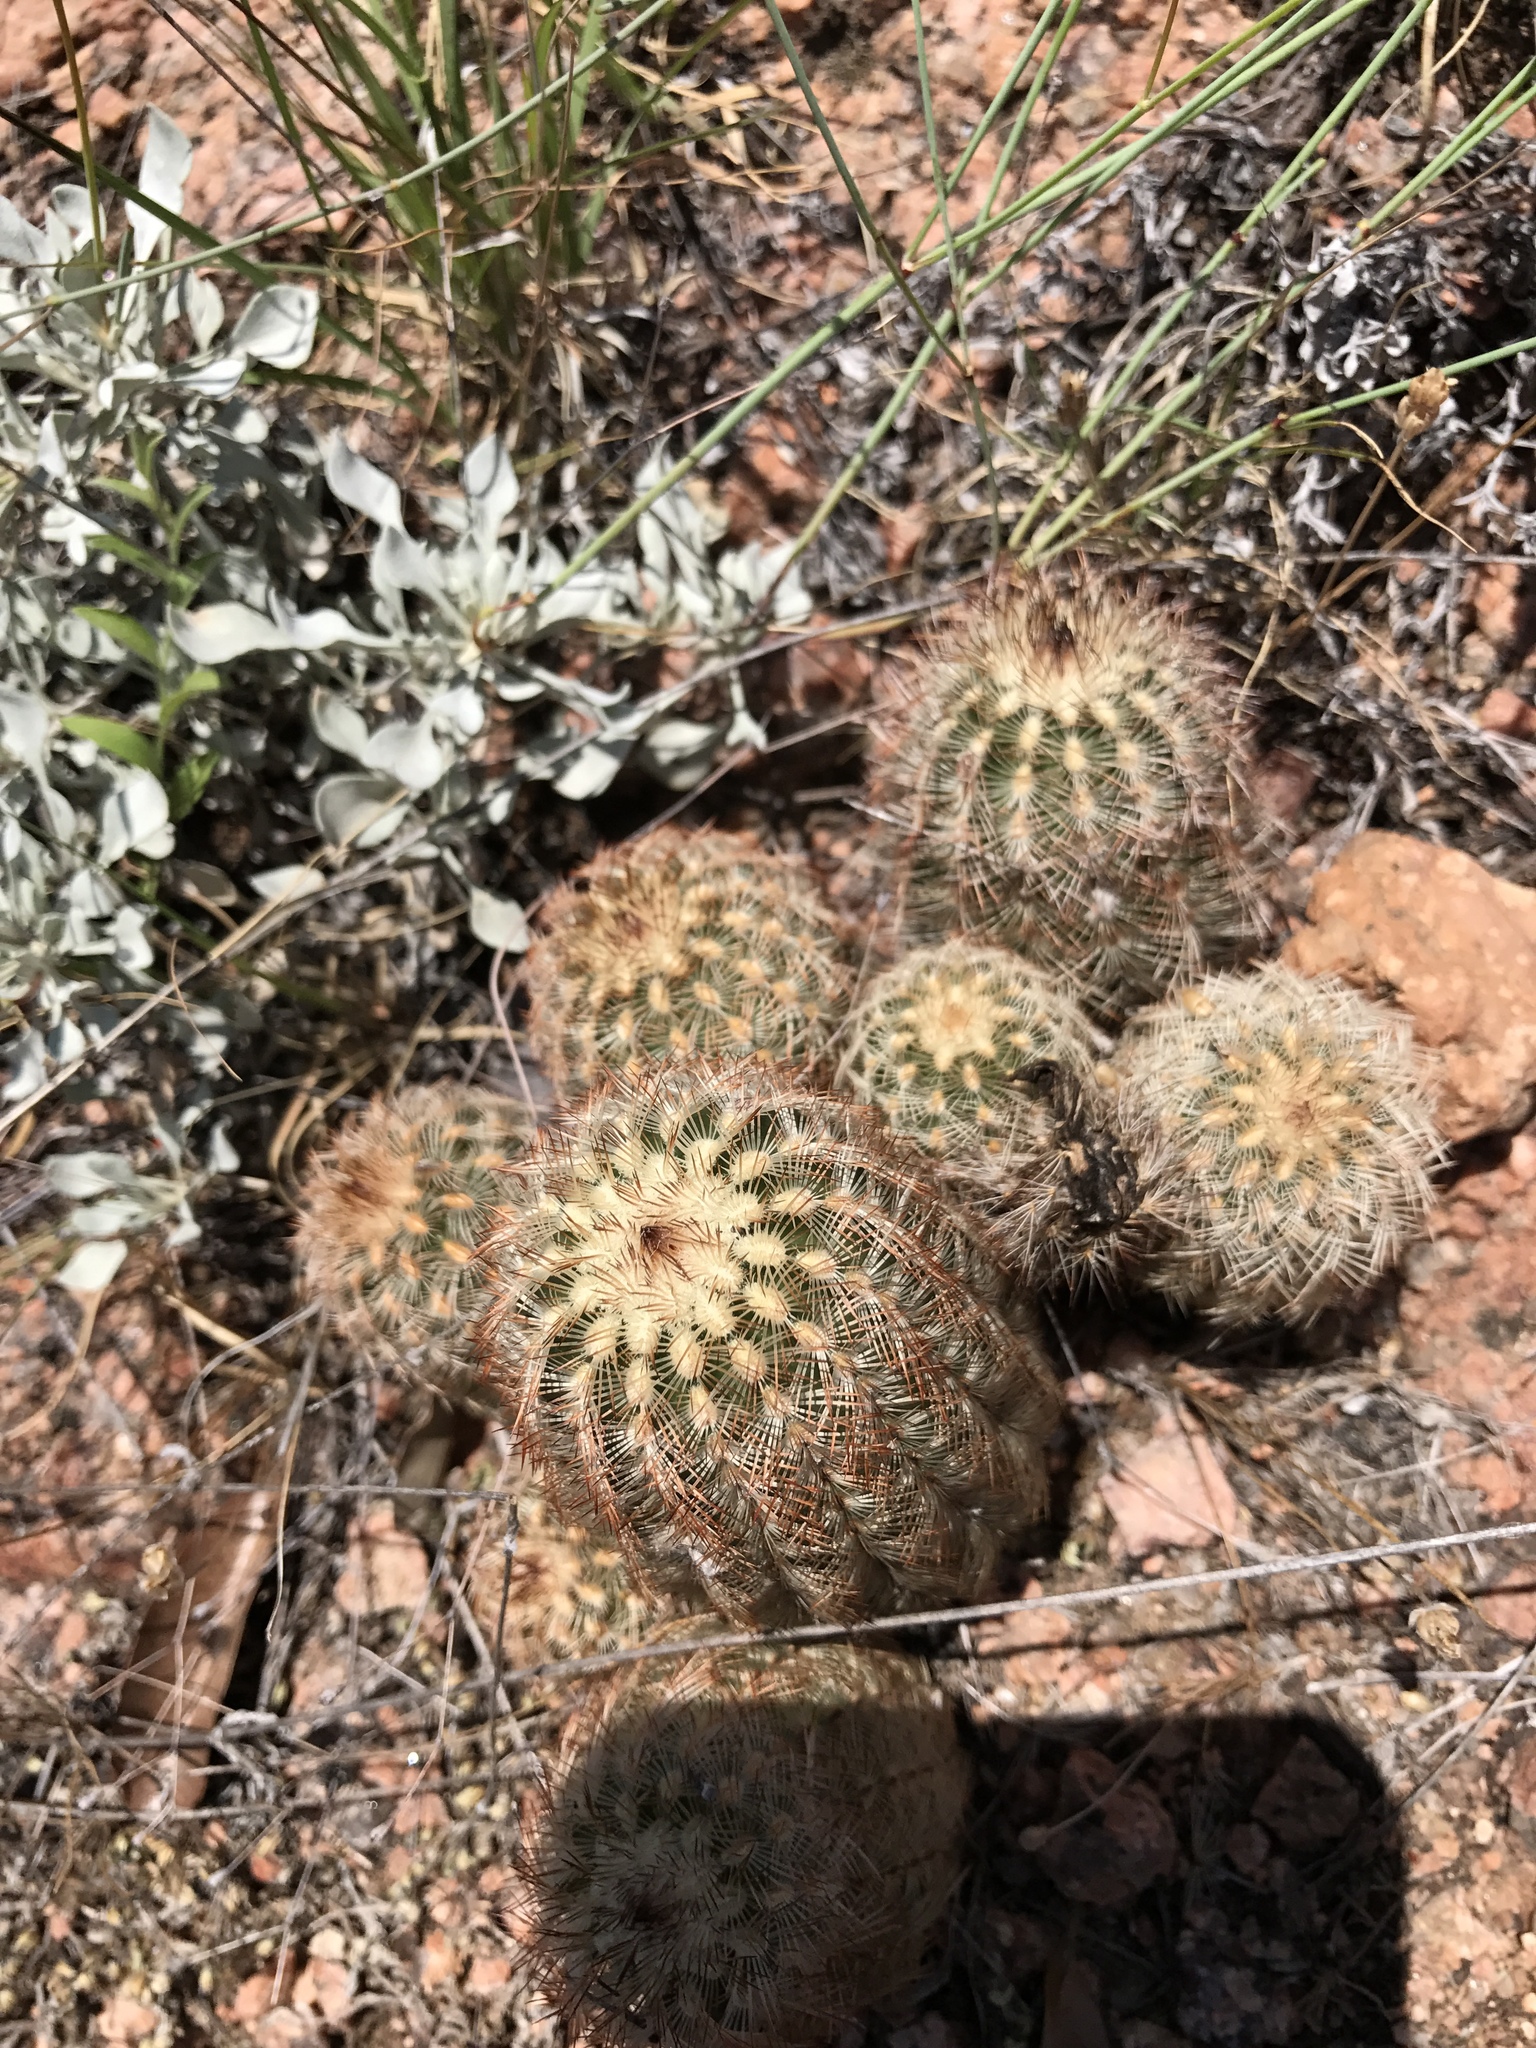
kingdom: Plantae
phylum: Tracheophyta
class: Magnoliopsida
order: Caryophyllales
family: Cactaceae
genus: Echinocereus
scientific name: Echinocereus reichenbachii
